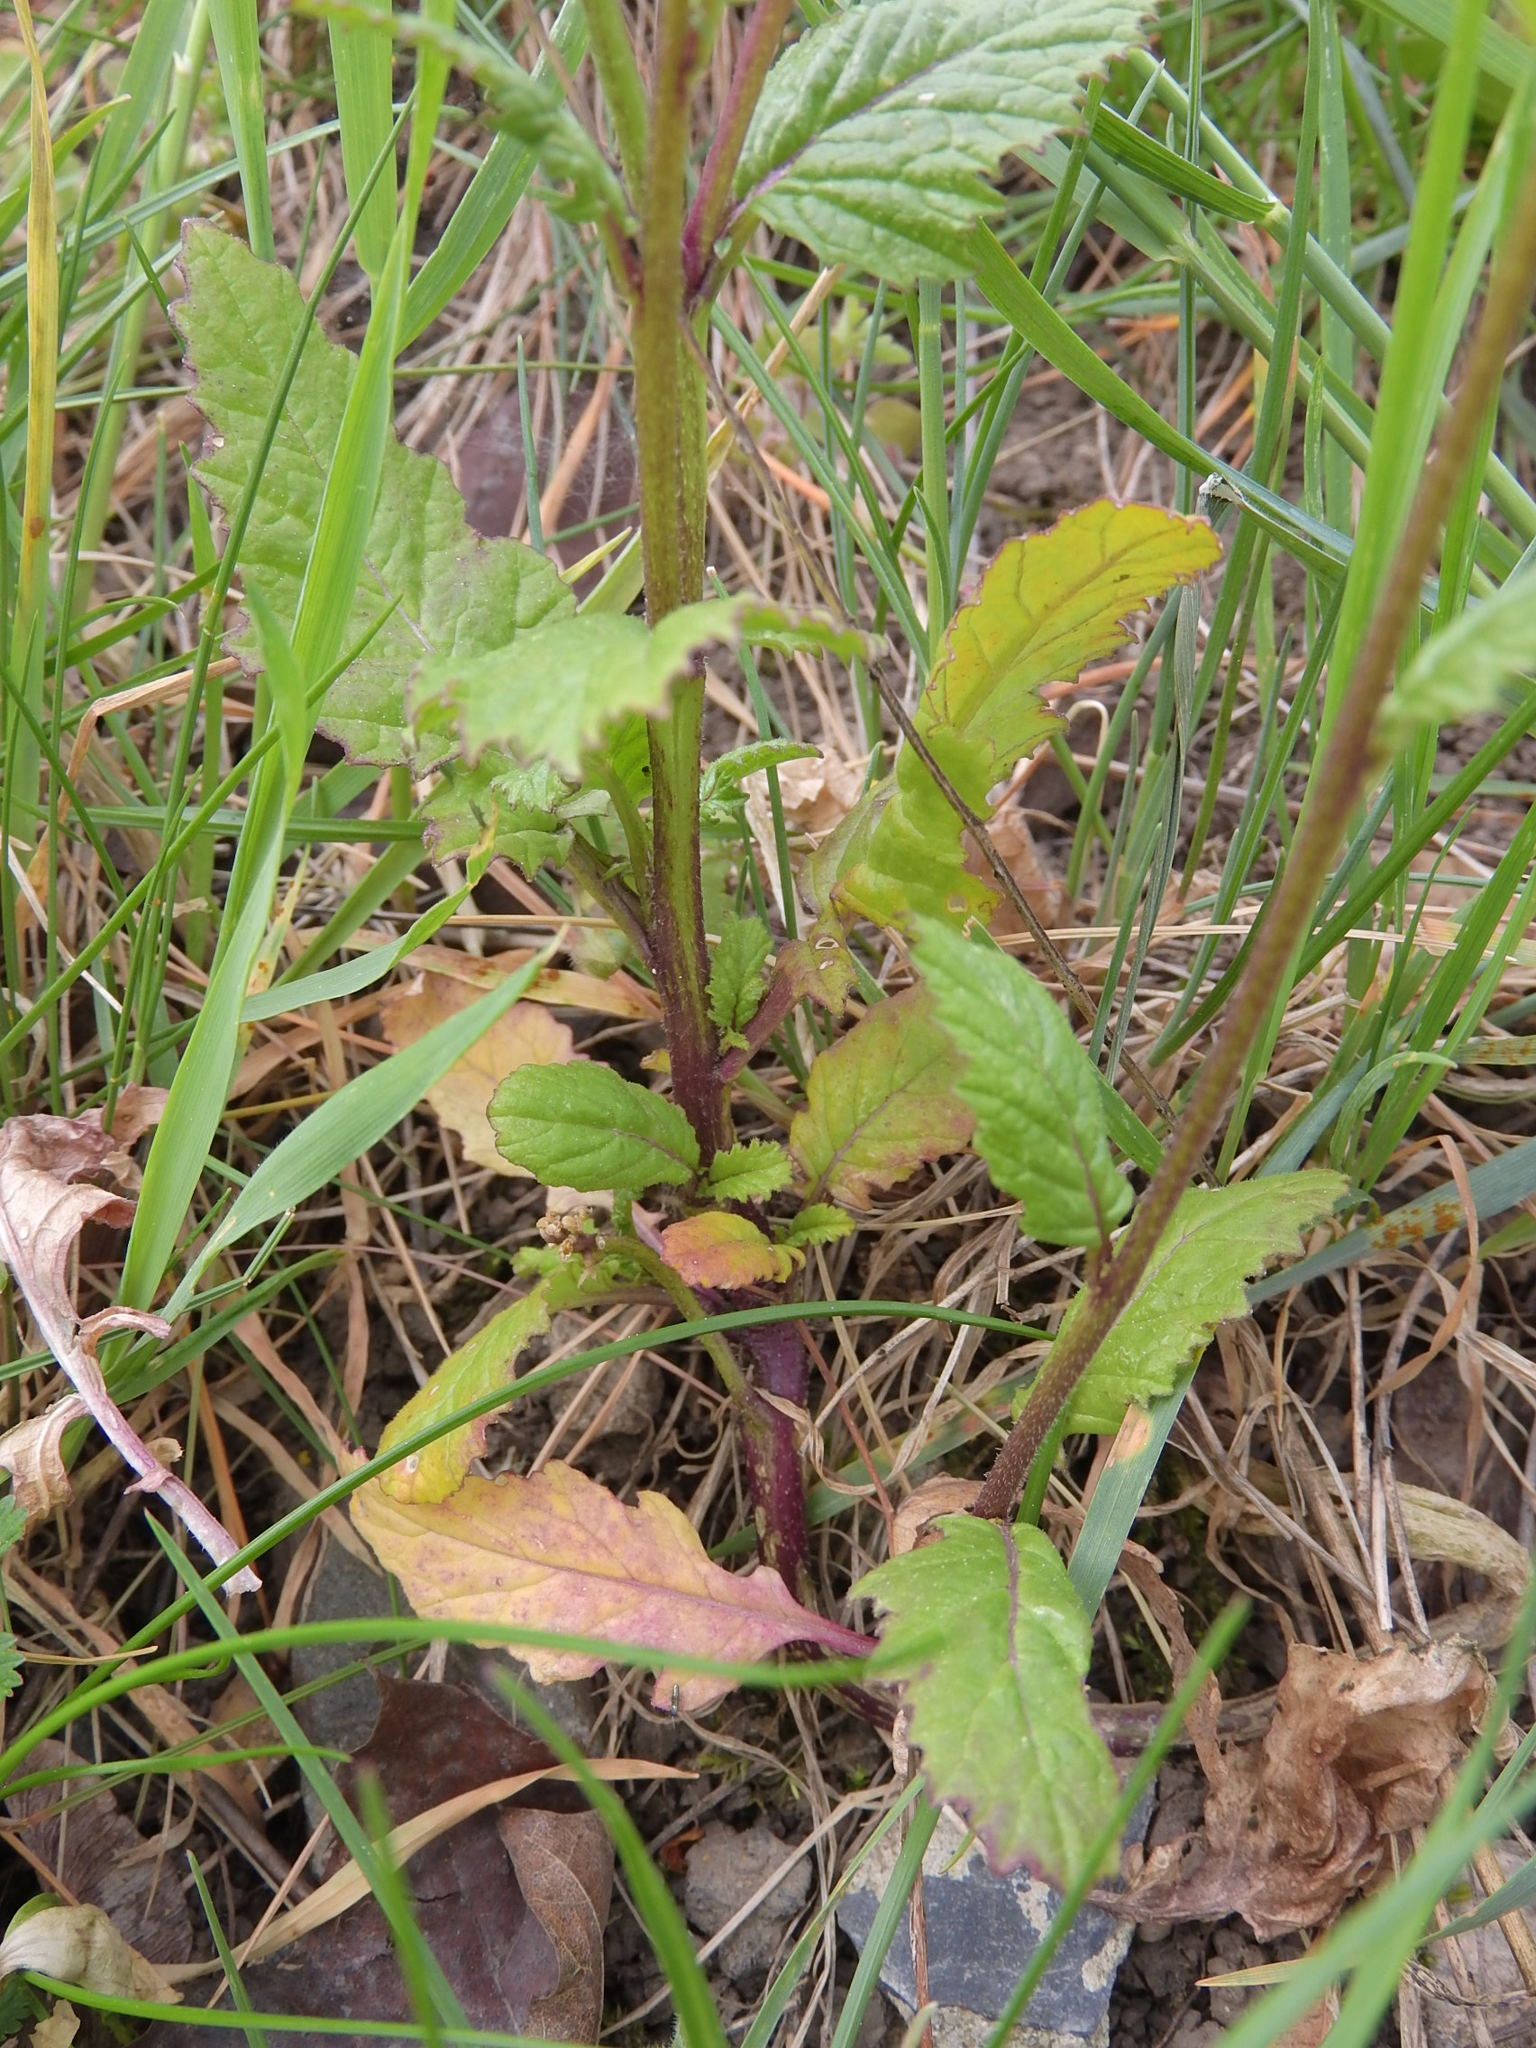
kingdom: Plantae
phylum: Tracheophyta
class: Magnoliopsida
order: Brassicales
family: Brassicaceae
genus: Sinapis
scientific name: Sinapis arvensis
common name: Charlock
